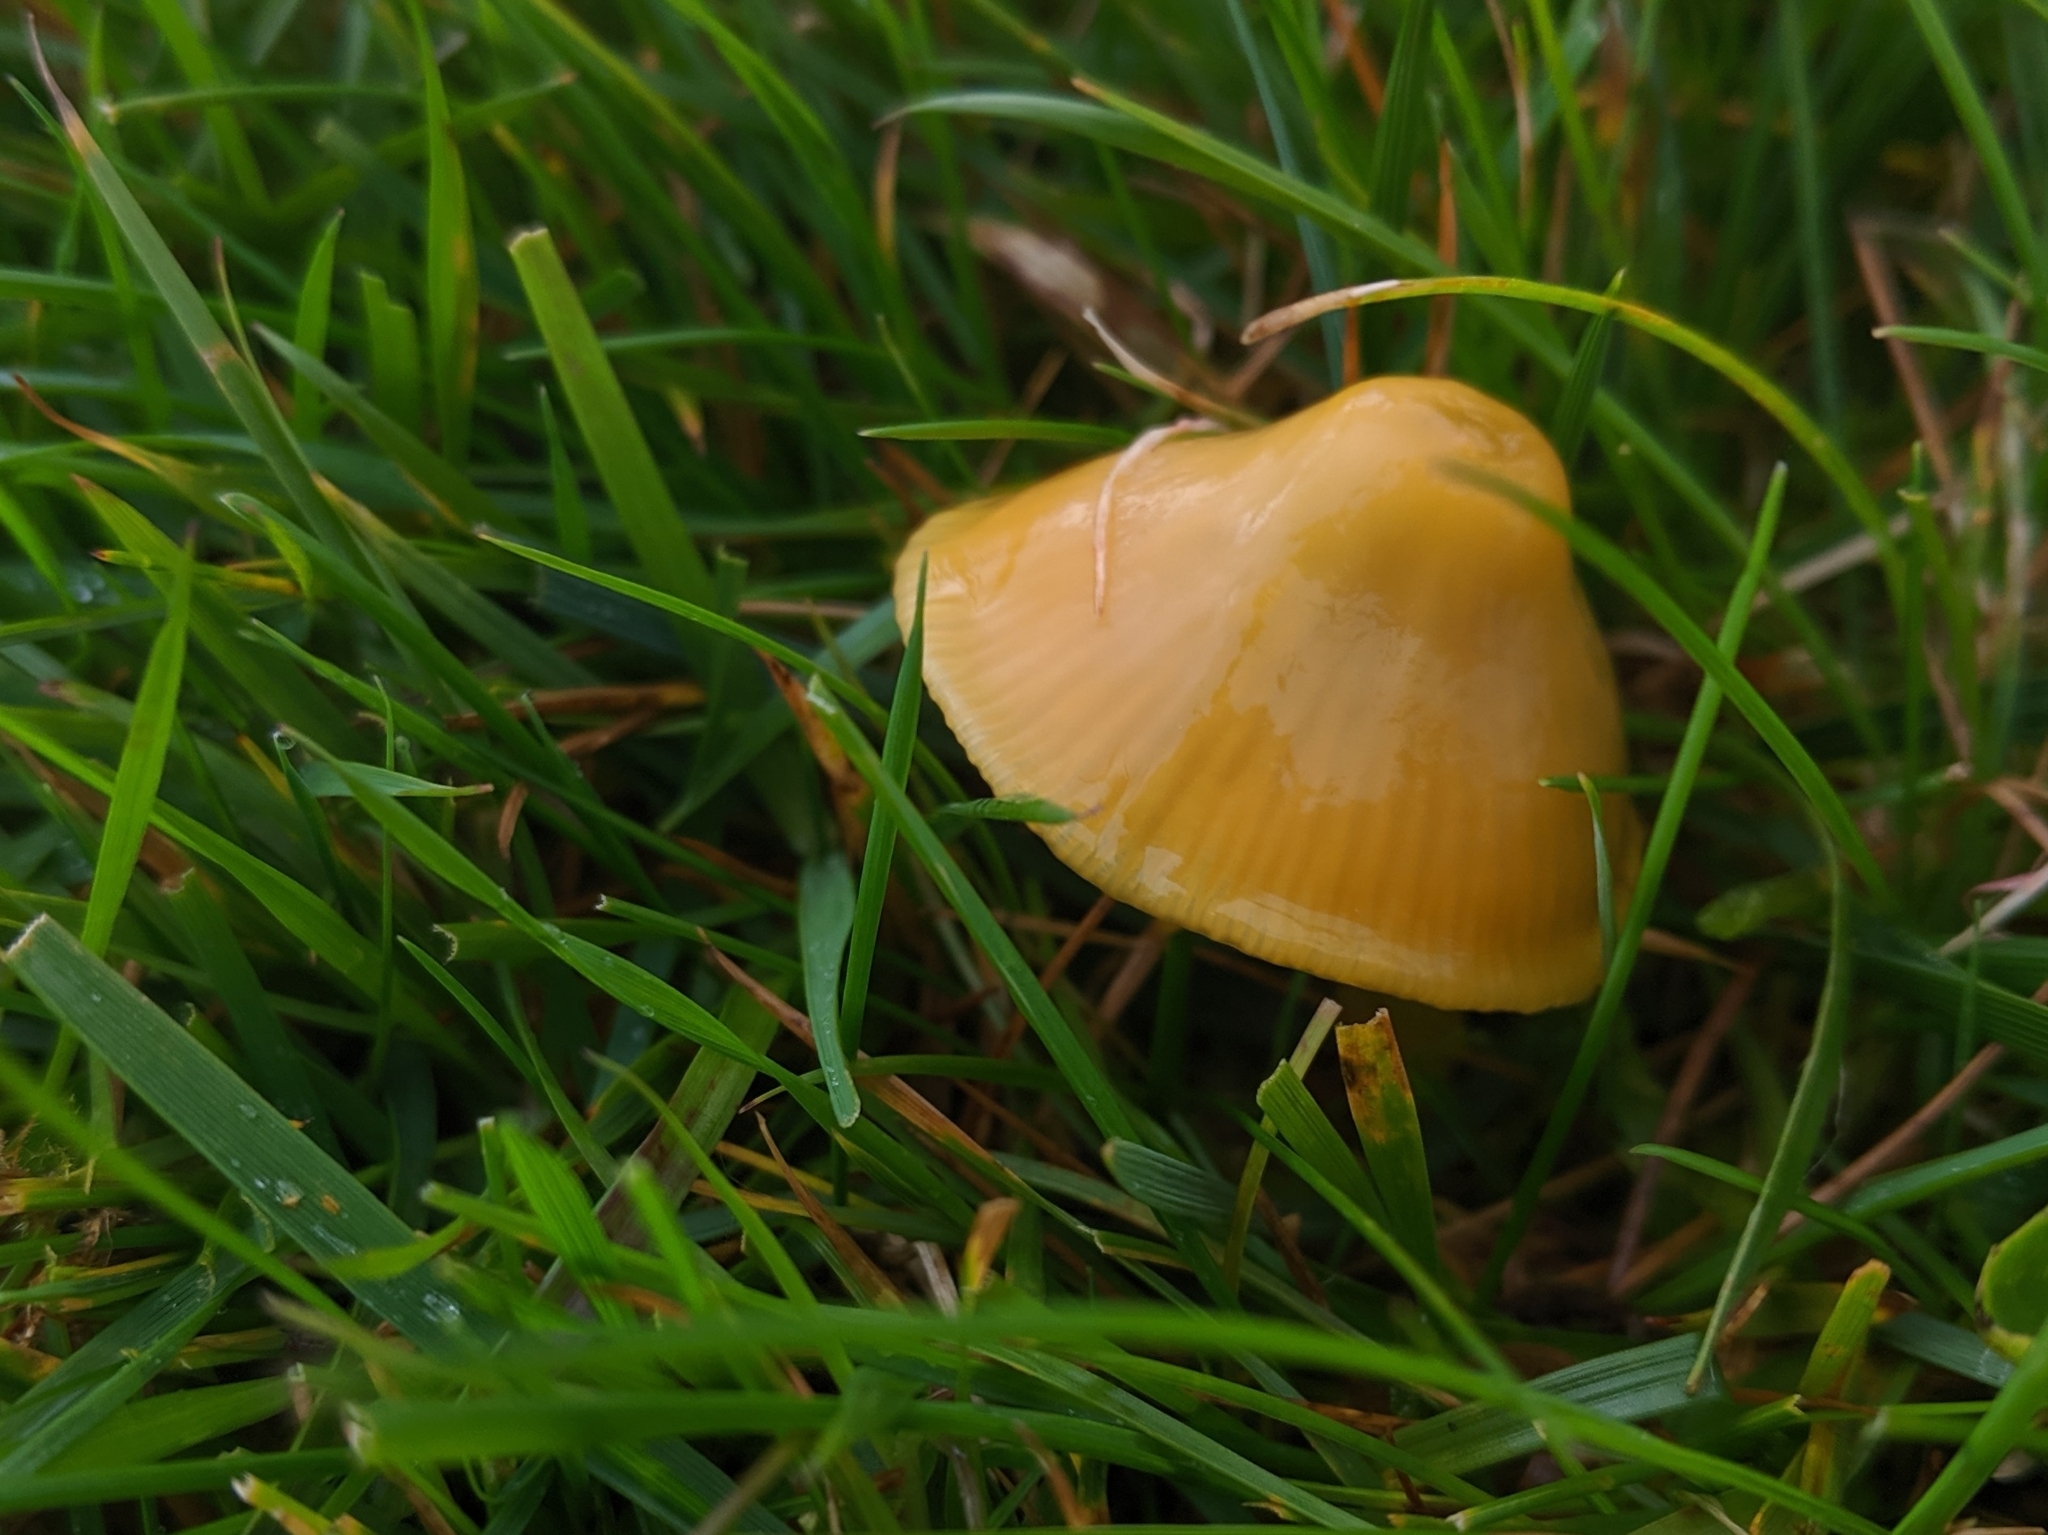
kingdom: Fungi
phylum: Basidiomycota
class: Agaricomycetes
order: Agaricales
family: Hygrophoraceae
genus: Gliophorus
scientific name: Gliophorus psittacinus
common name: Parrot wax-cap
